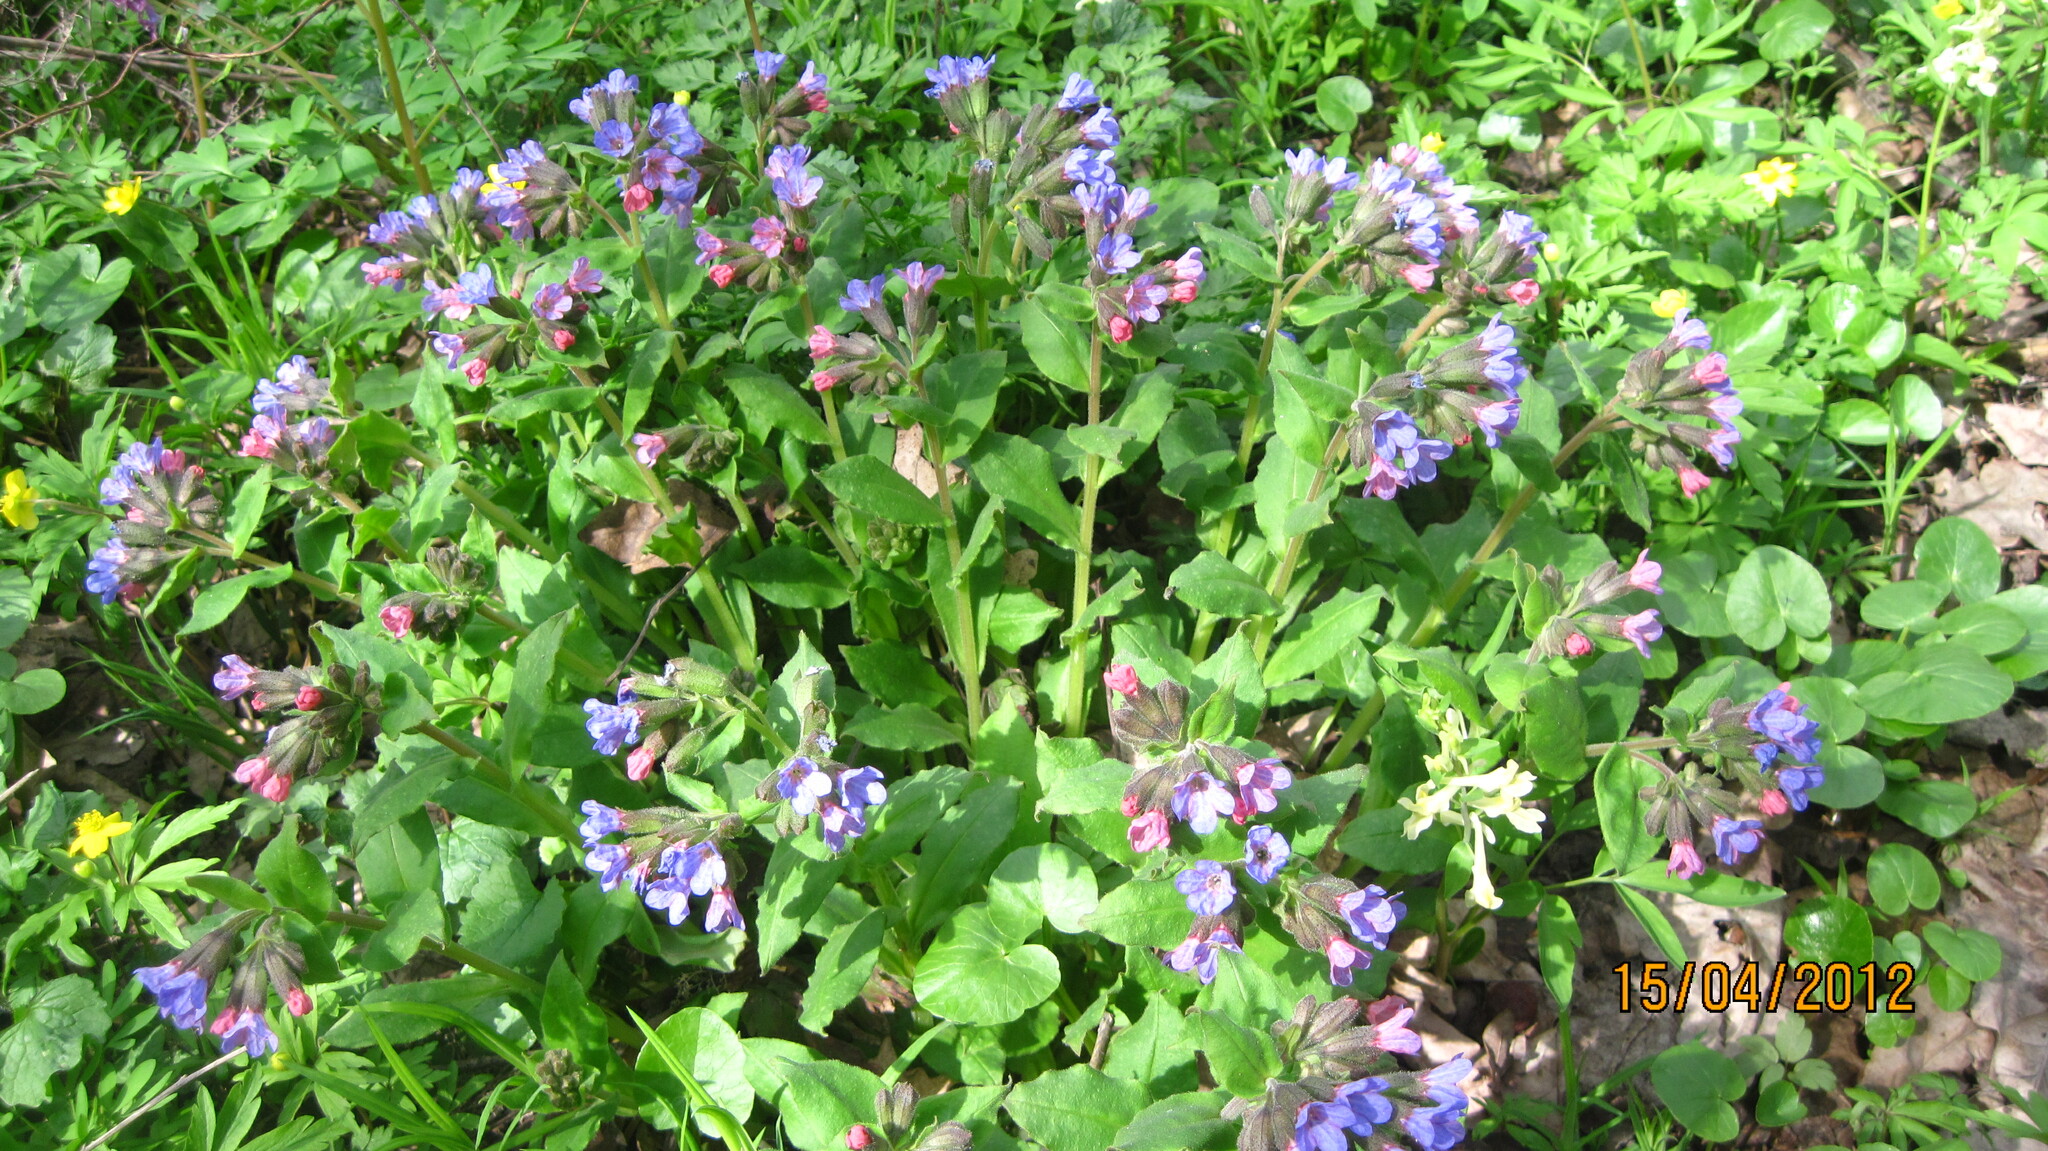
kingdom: Plantae
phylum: Tracheophyta
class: Magnoliopsida
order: Boraginales
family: Boraginaceae
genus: Pulmonaria
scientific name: Pulmonaria obscura
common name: Suffolk lungwort
